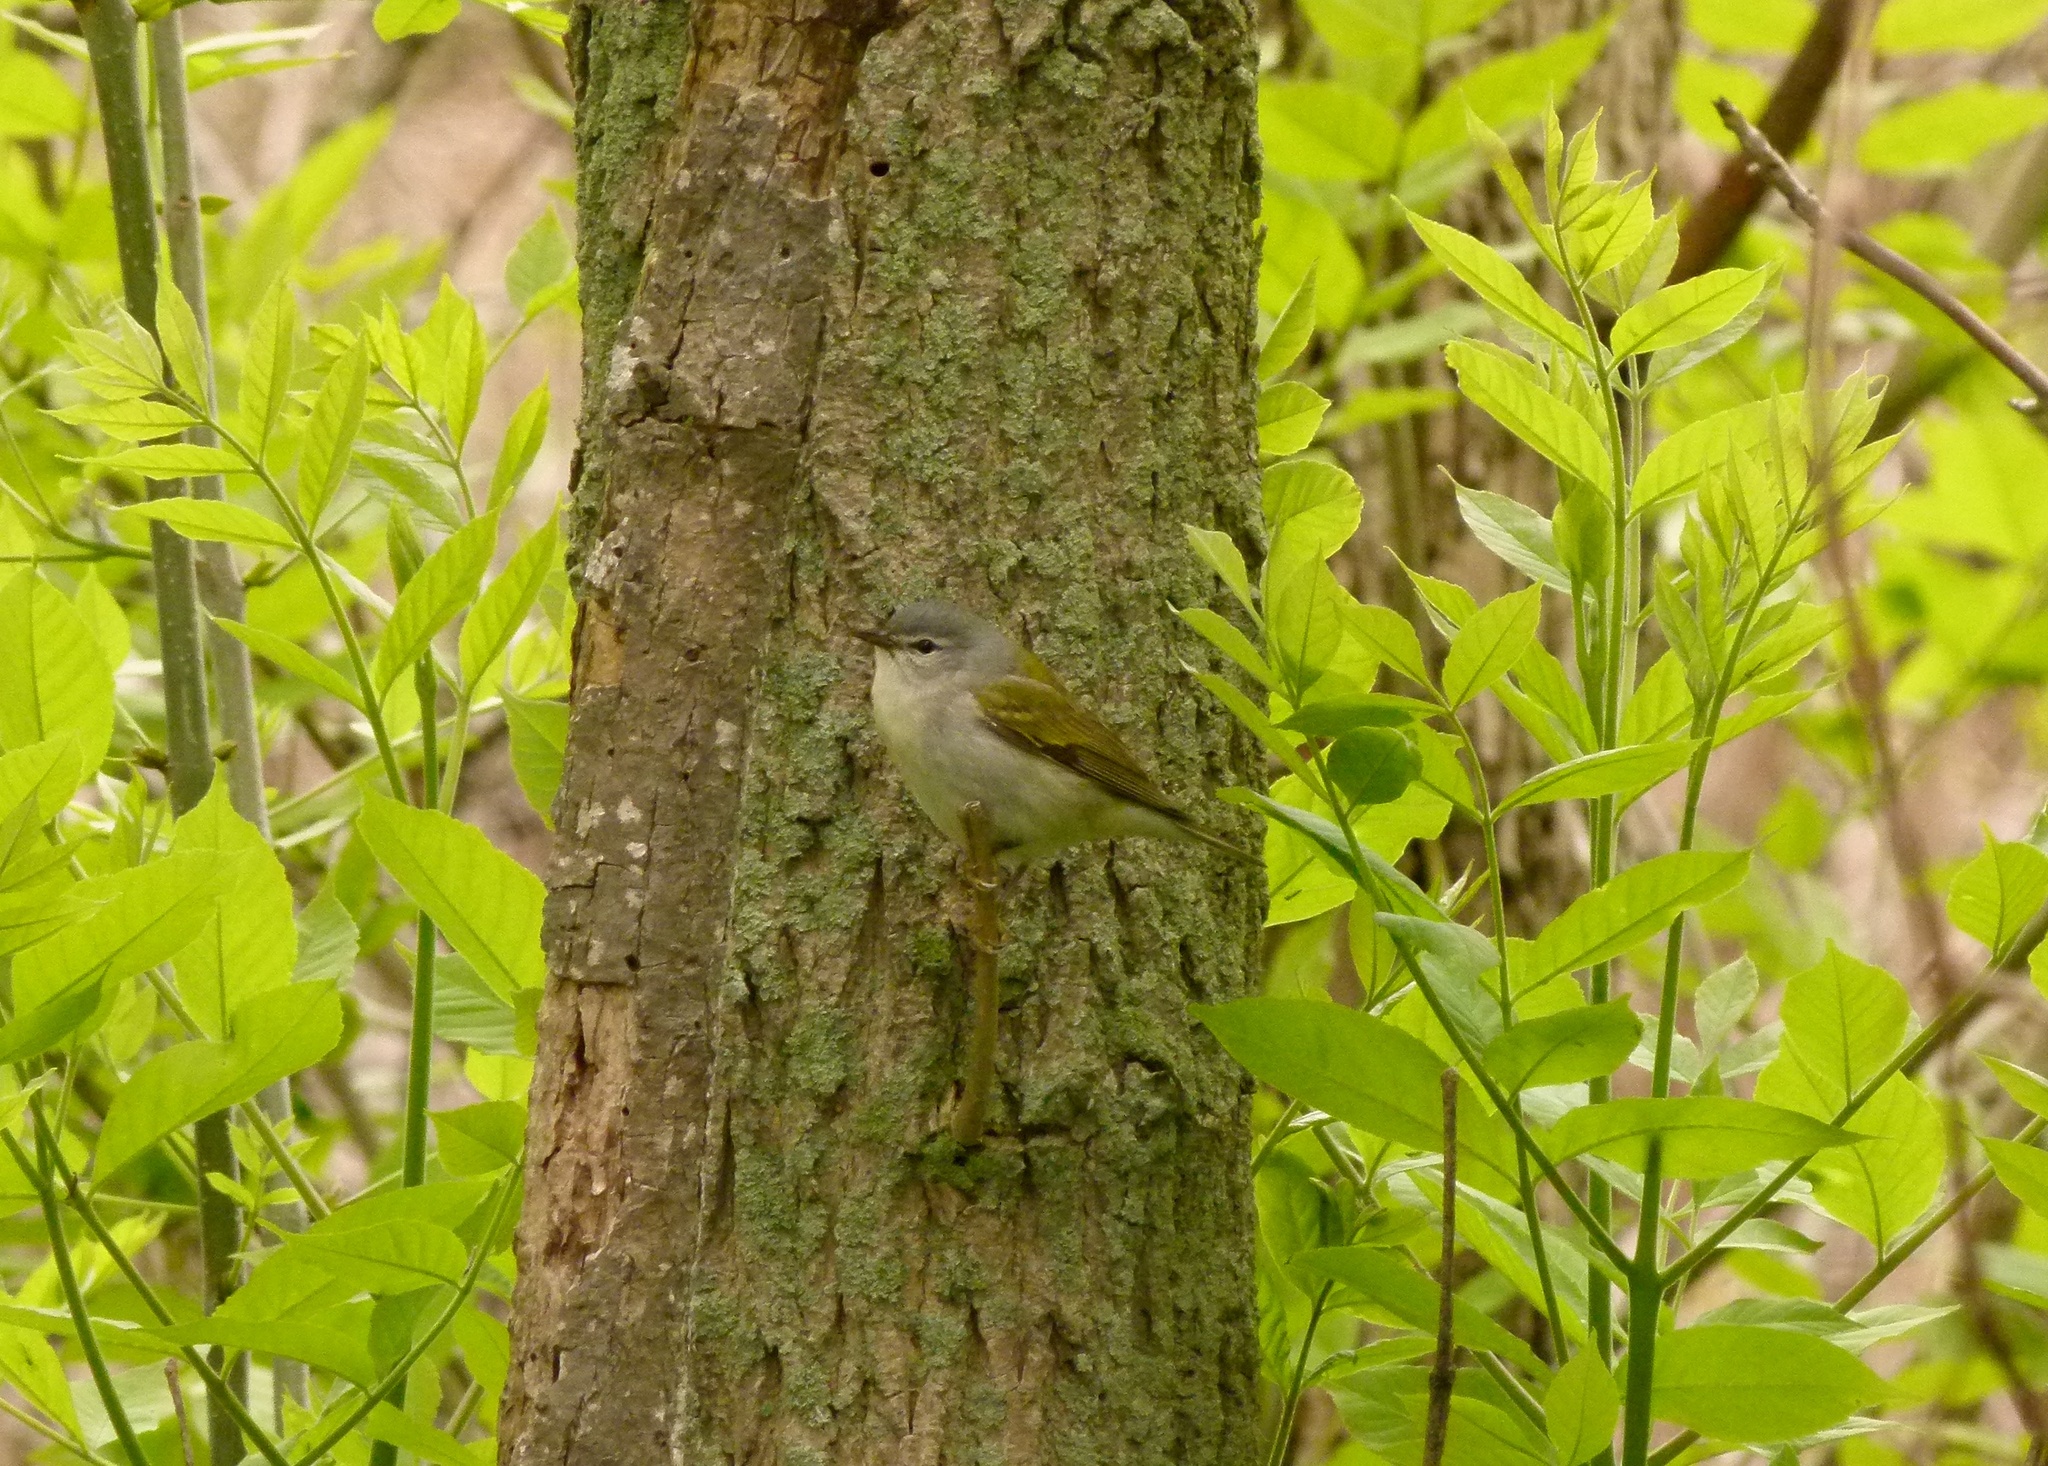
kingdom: Animalia
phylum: Chordata
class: Aves
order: Passeriformes
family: Parulidae
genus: Leiothlypis
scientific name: Leiothlypis peregrina
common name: Tennessee warbler
